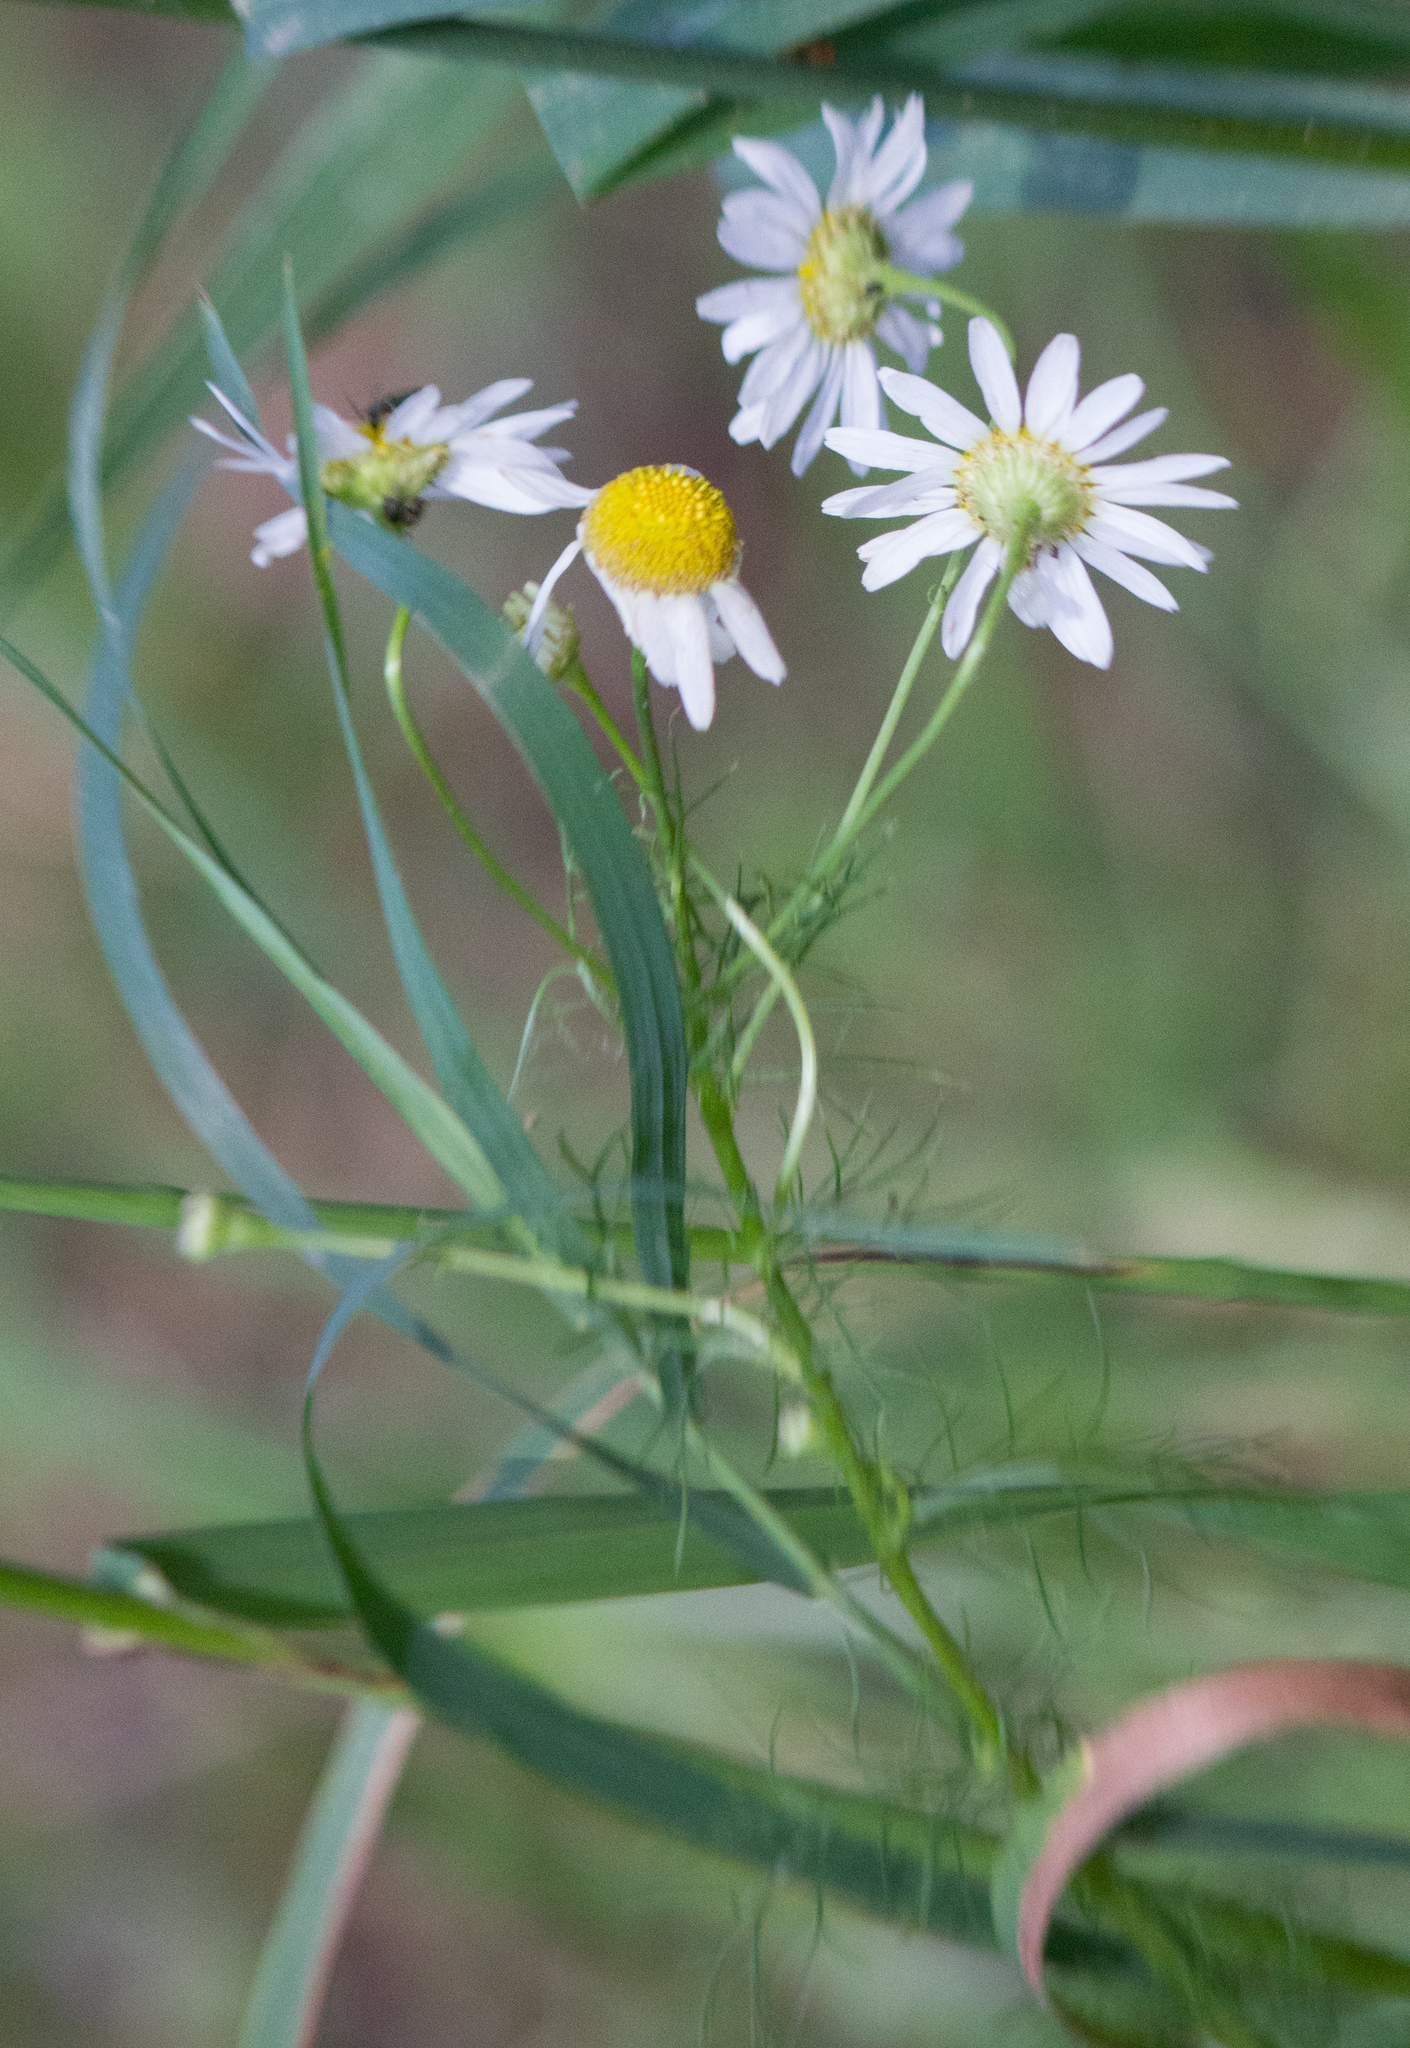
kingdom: Plantae
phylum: Tracheophyta
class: Magnoliopsida
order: Asterales
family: Asteraceae
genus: Tripleurospermum
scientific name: Tripleurospermum inodorum
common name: Scentless mayweed
